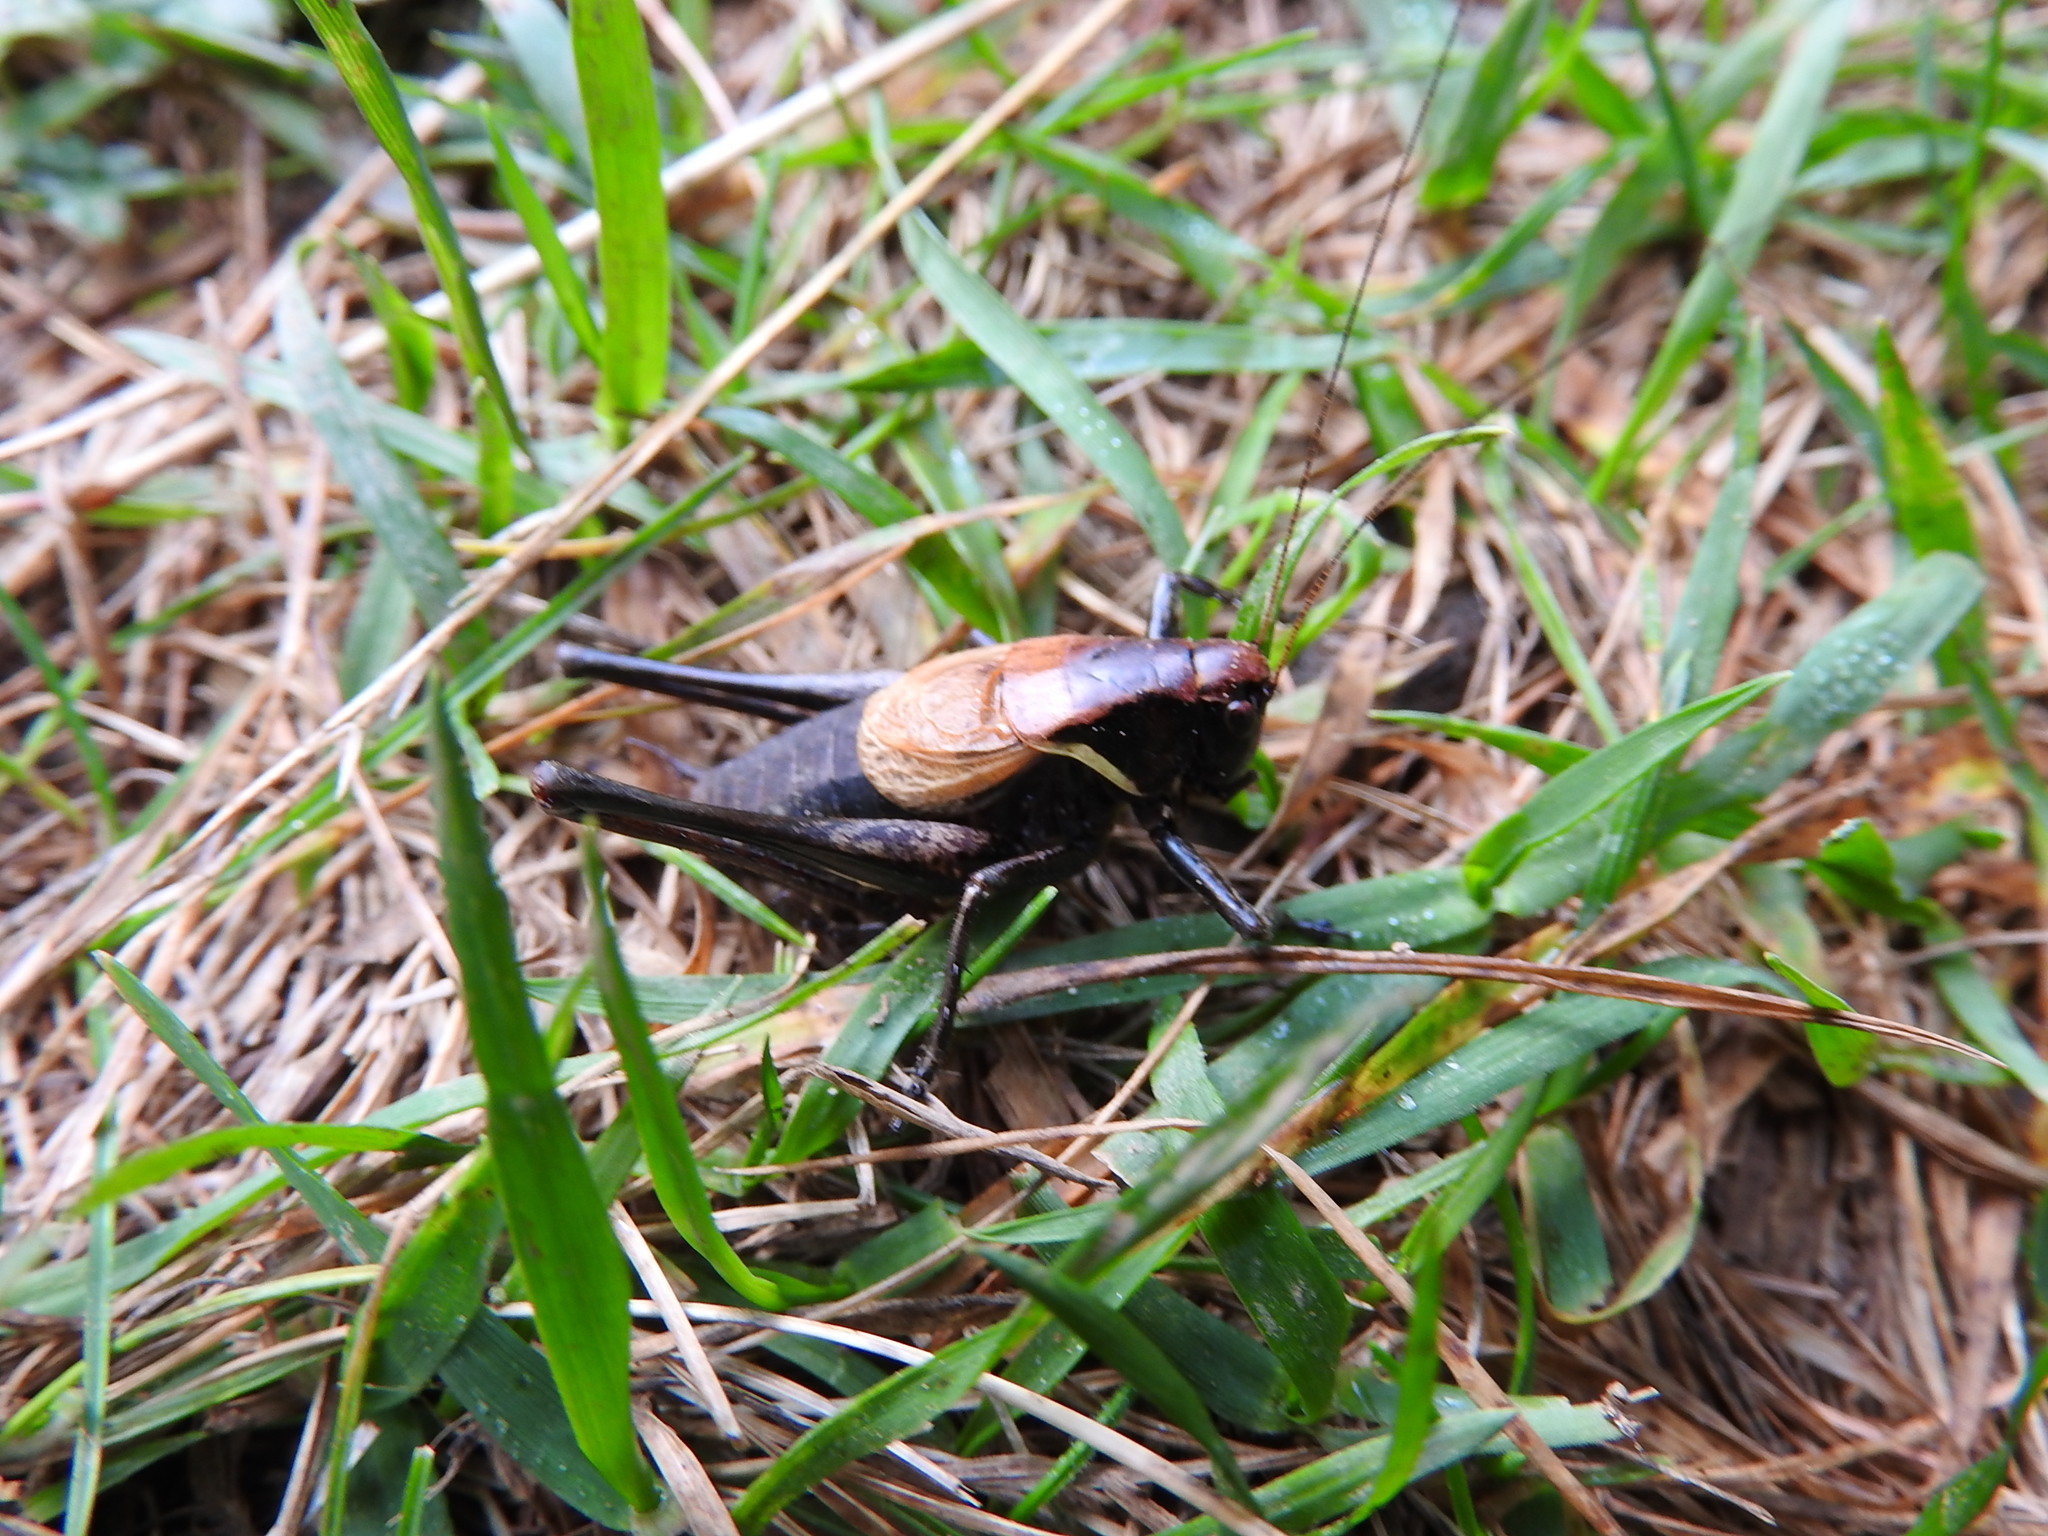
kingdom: Animalia
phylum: Arthropoda
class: Insecta
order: Orthoptera
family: Tettigoniidae
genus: Pholidoptera
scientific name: Pholidoptera aptera
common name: Alpine dark bush-cricket
